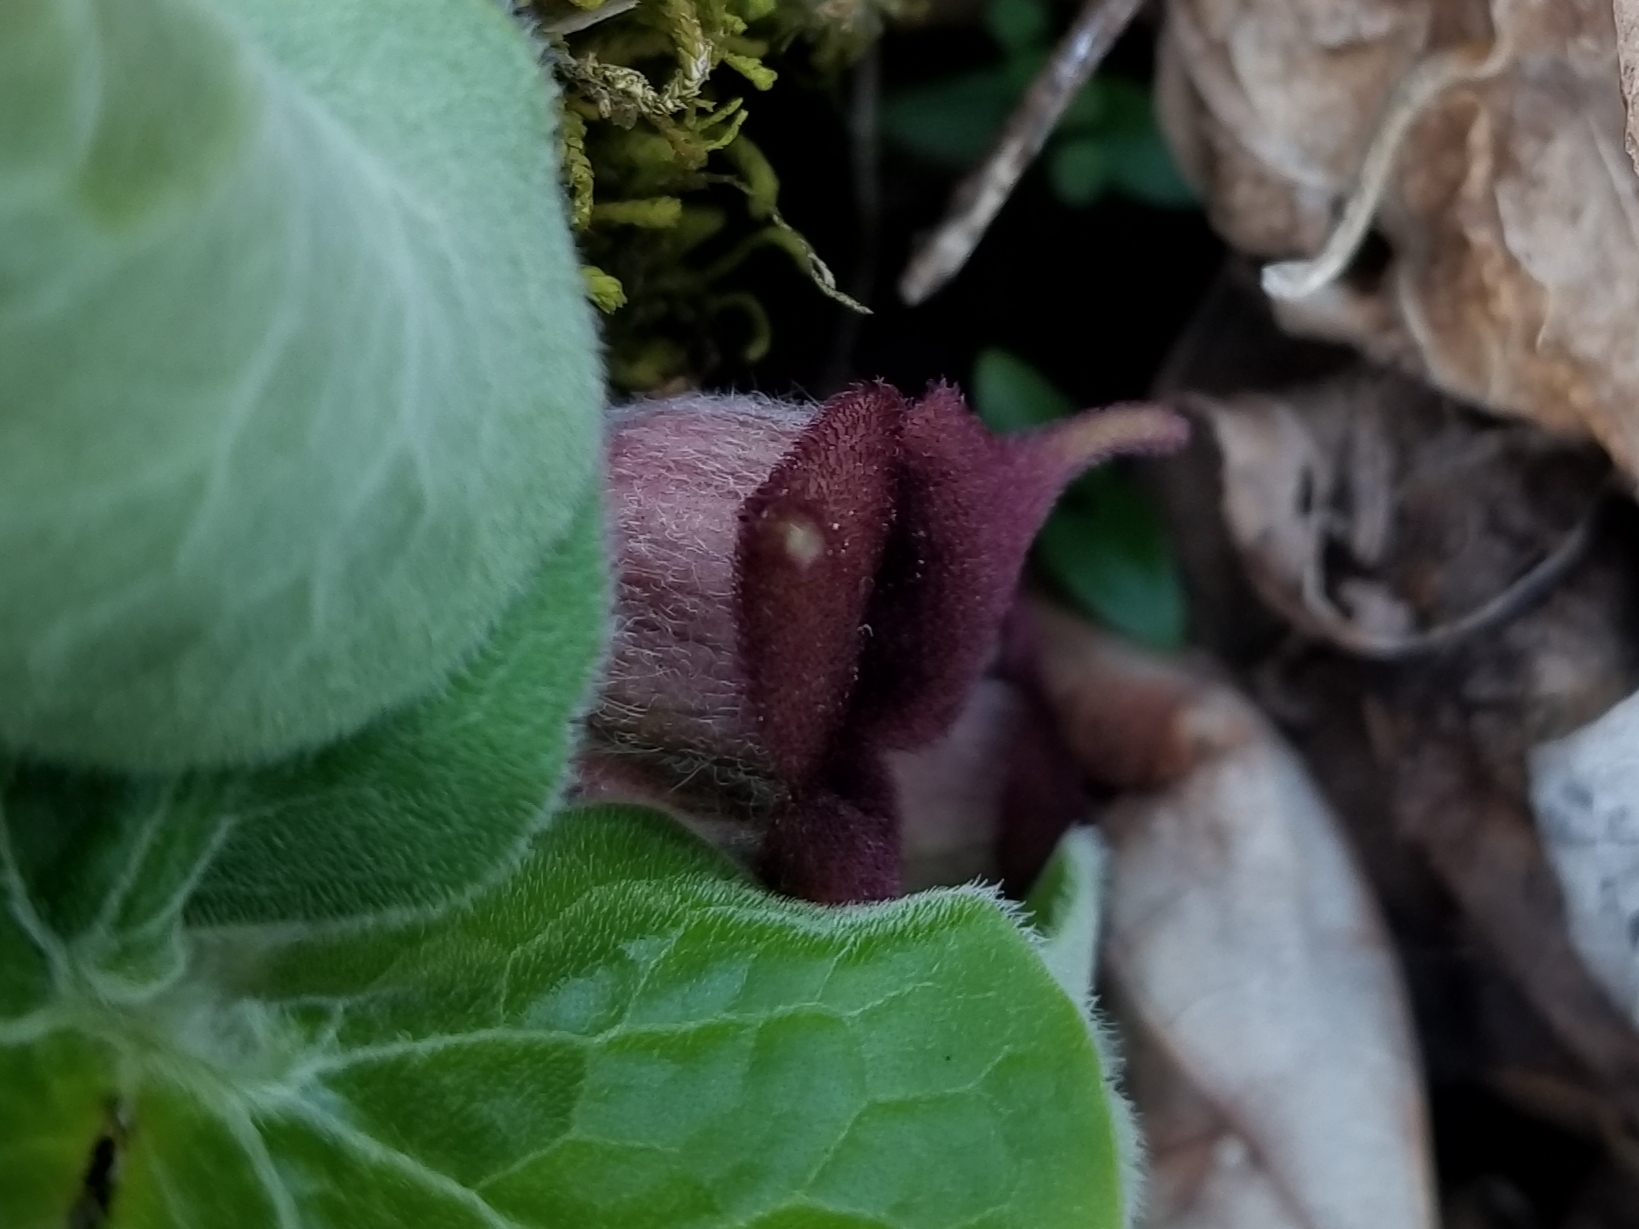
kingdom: Plantae
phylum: Tracheophyta
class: Magnoliopsida
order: Piperales
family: Aristolochiaceae
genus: Asarum
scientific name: Asarum canadense
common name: Wild ginger
